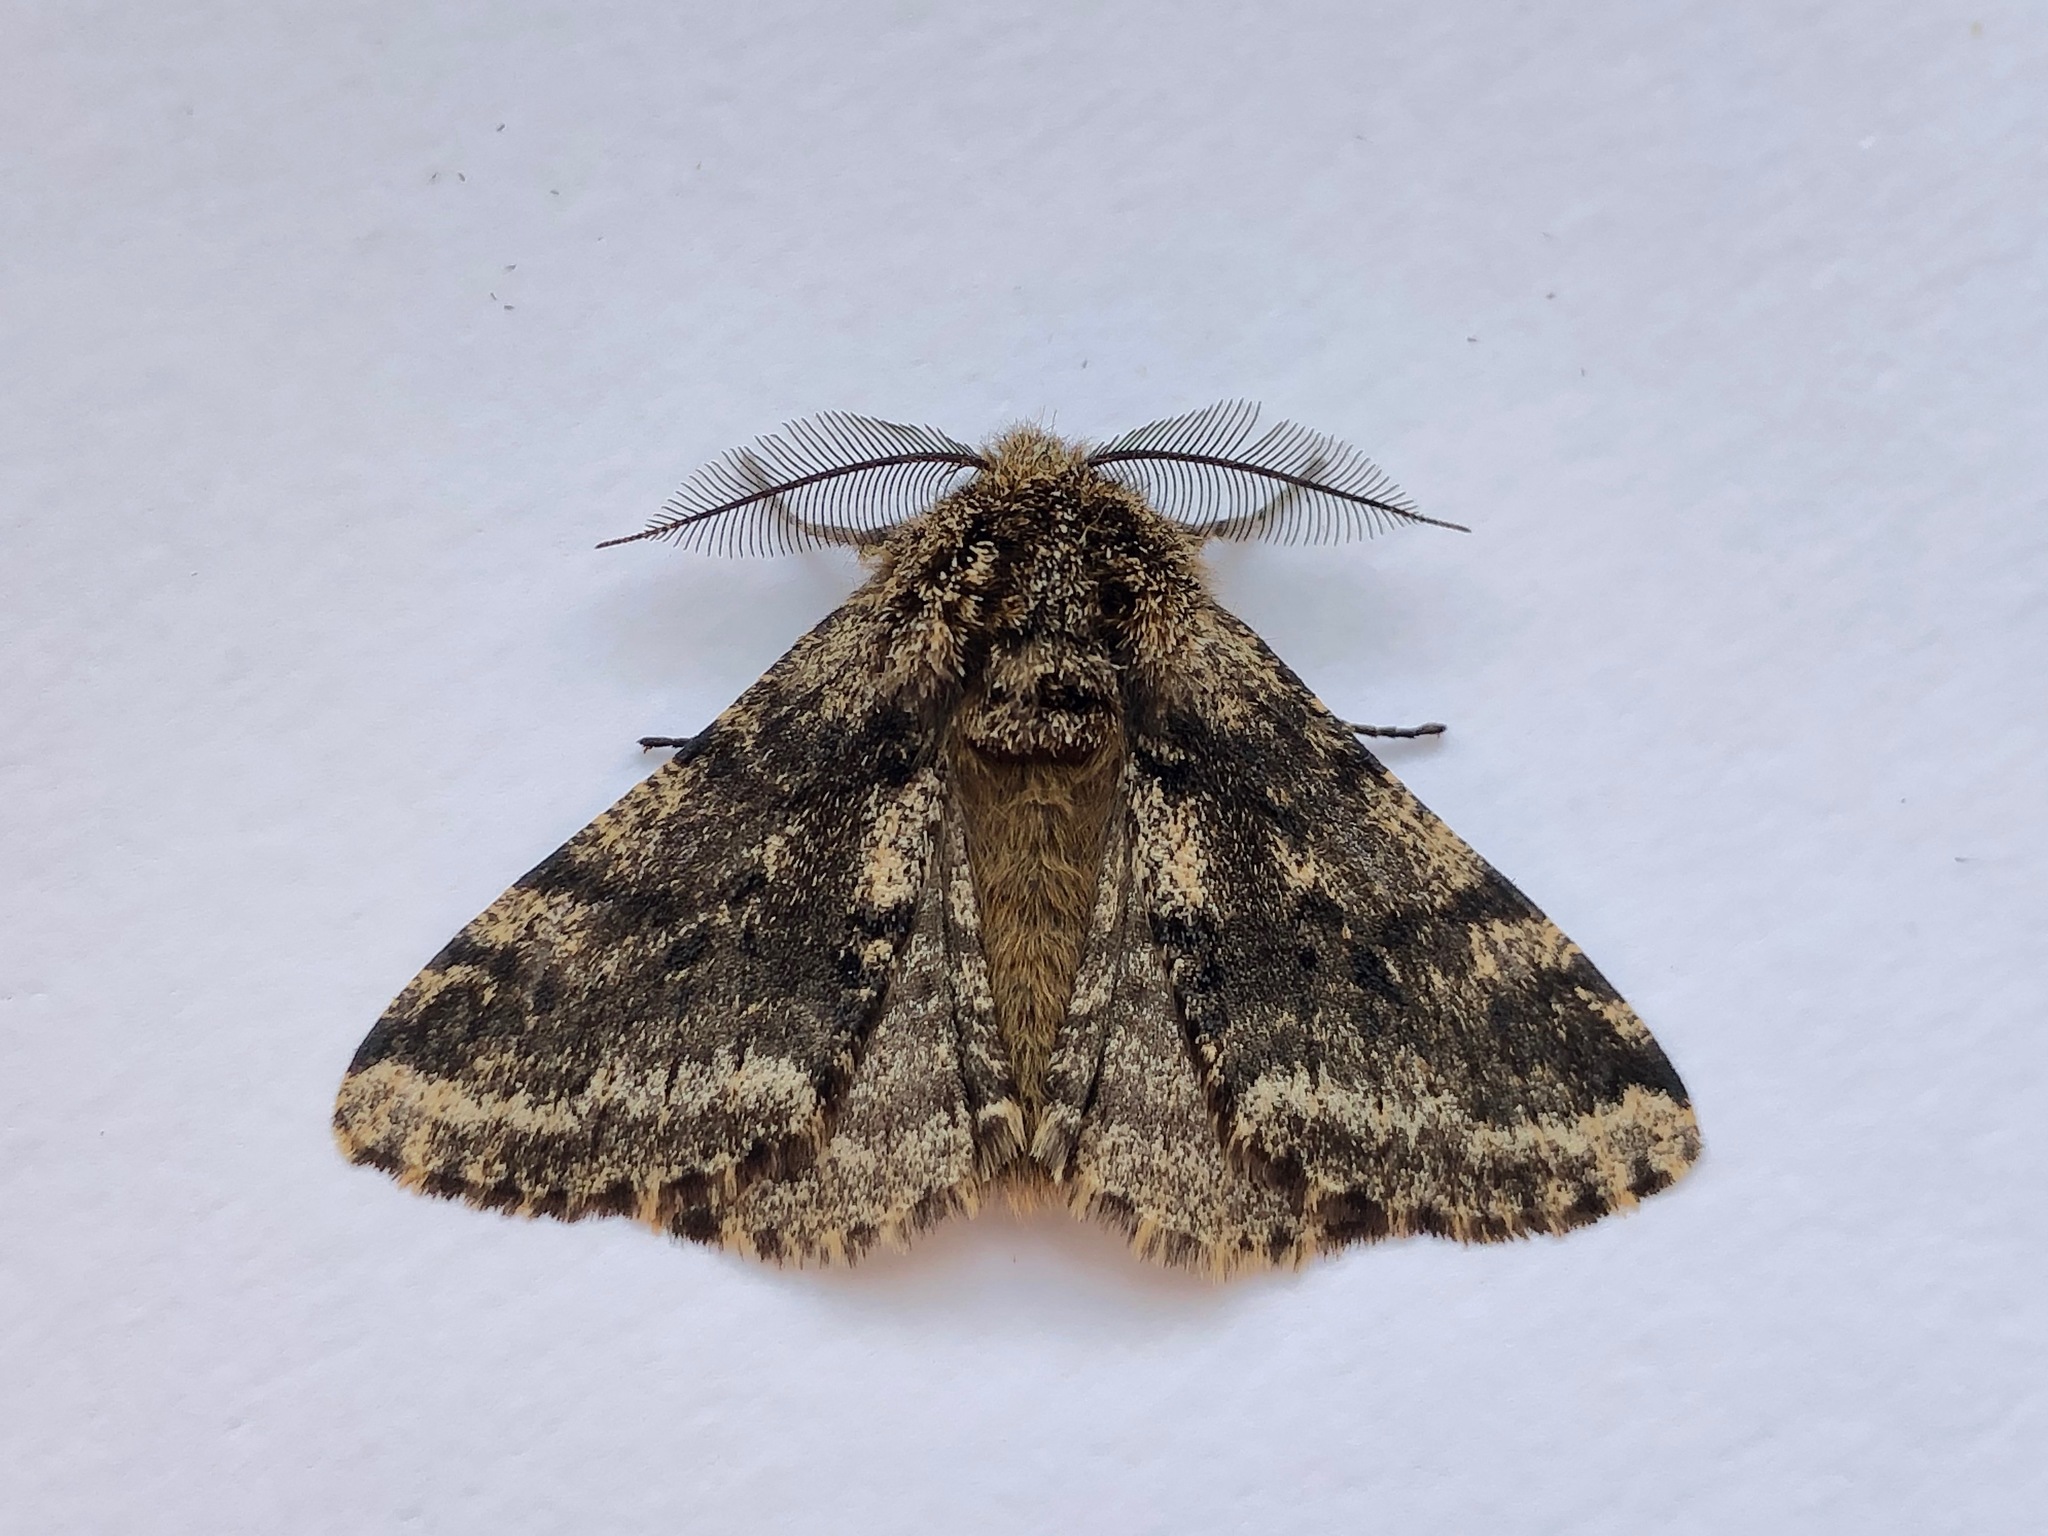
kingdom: Animalia
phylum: Arthropoda
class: Insecta
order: Lepidoptera
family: Geometridae
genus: Lycia
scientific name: Lycia hirtaria
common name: Brindled beauty
